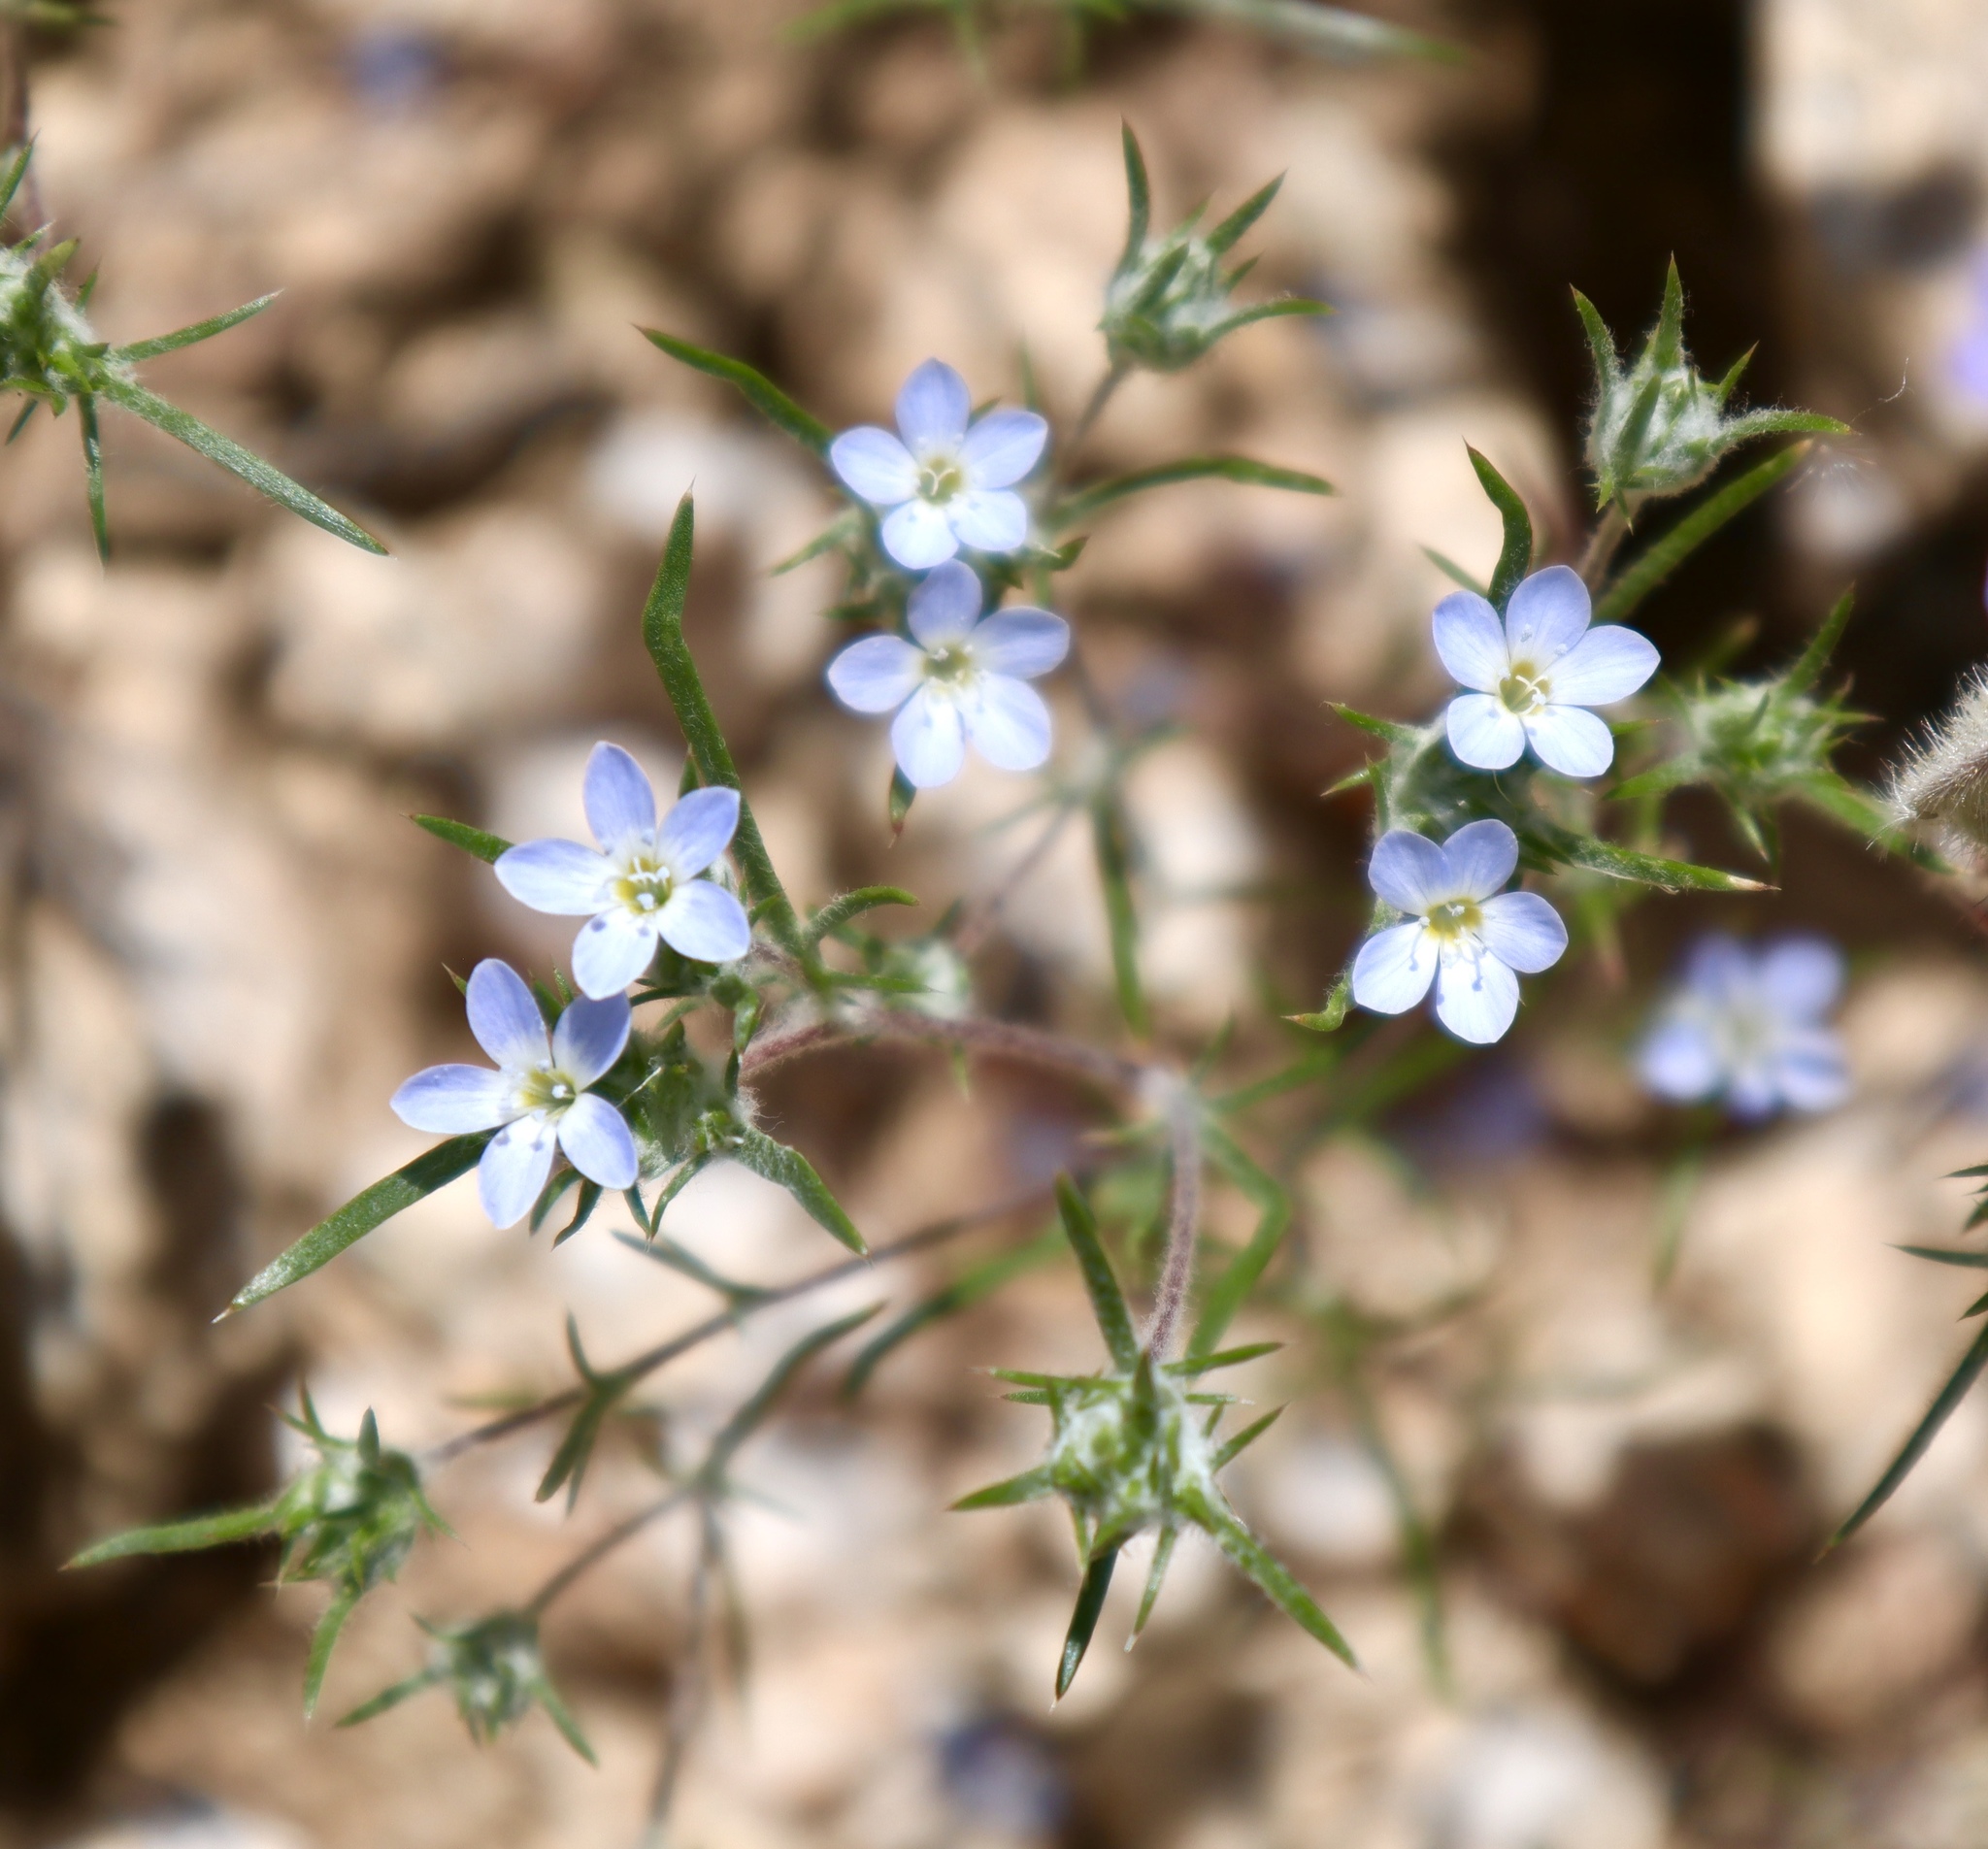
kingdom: Plantae
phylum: Tracheophyta
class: Magnoliopsida
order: Ericales
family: Polemoniaceae
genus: Eriastrum
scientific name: Eriastrum diffusum
